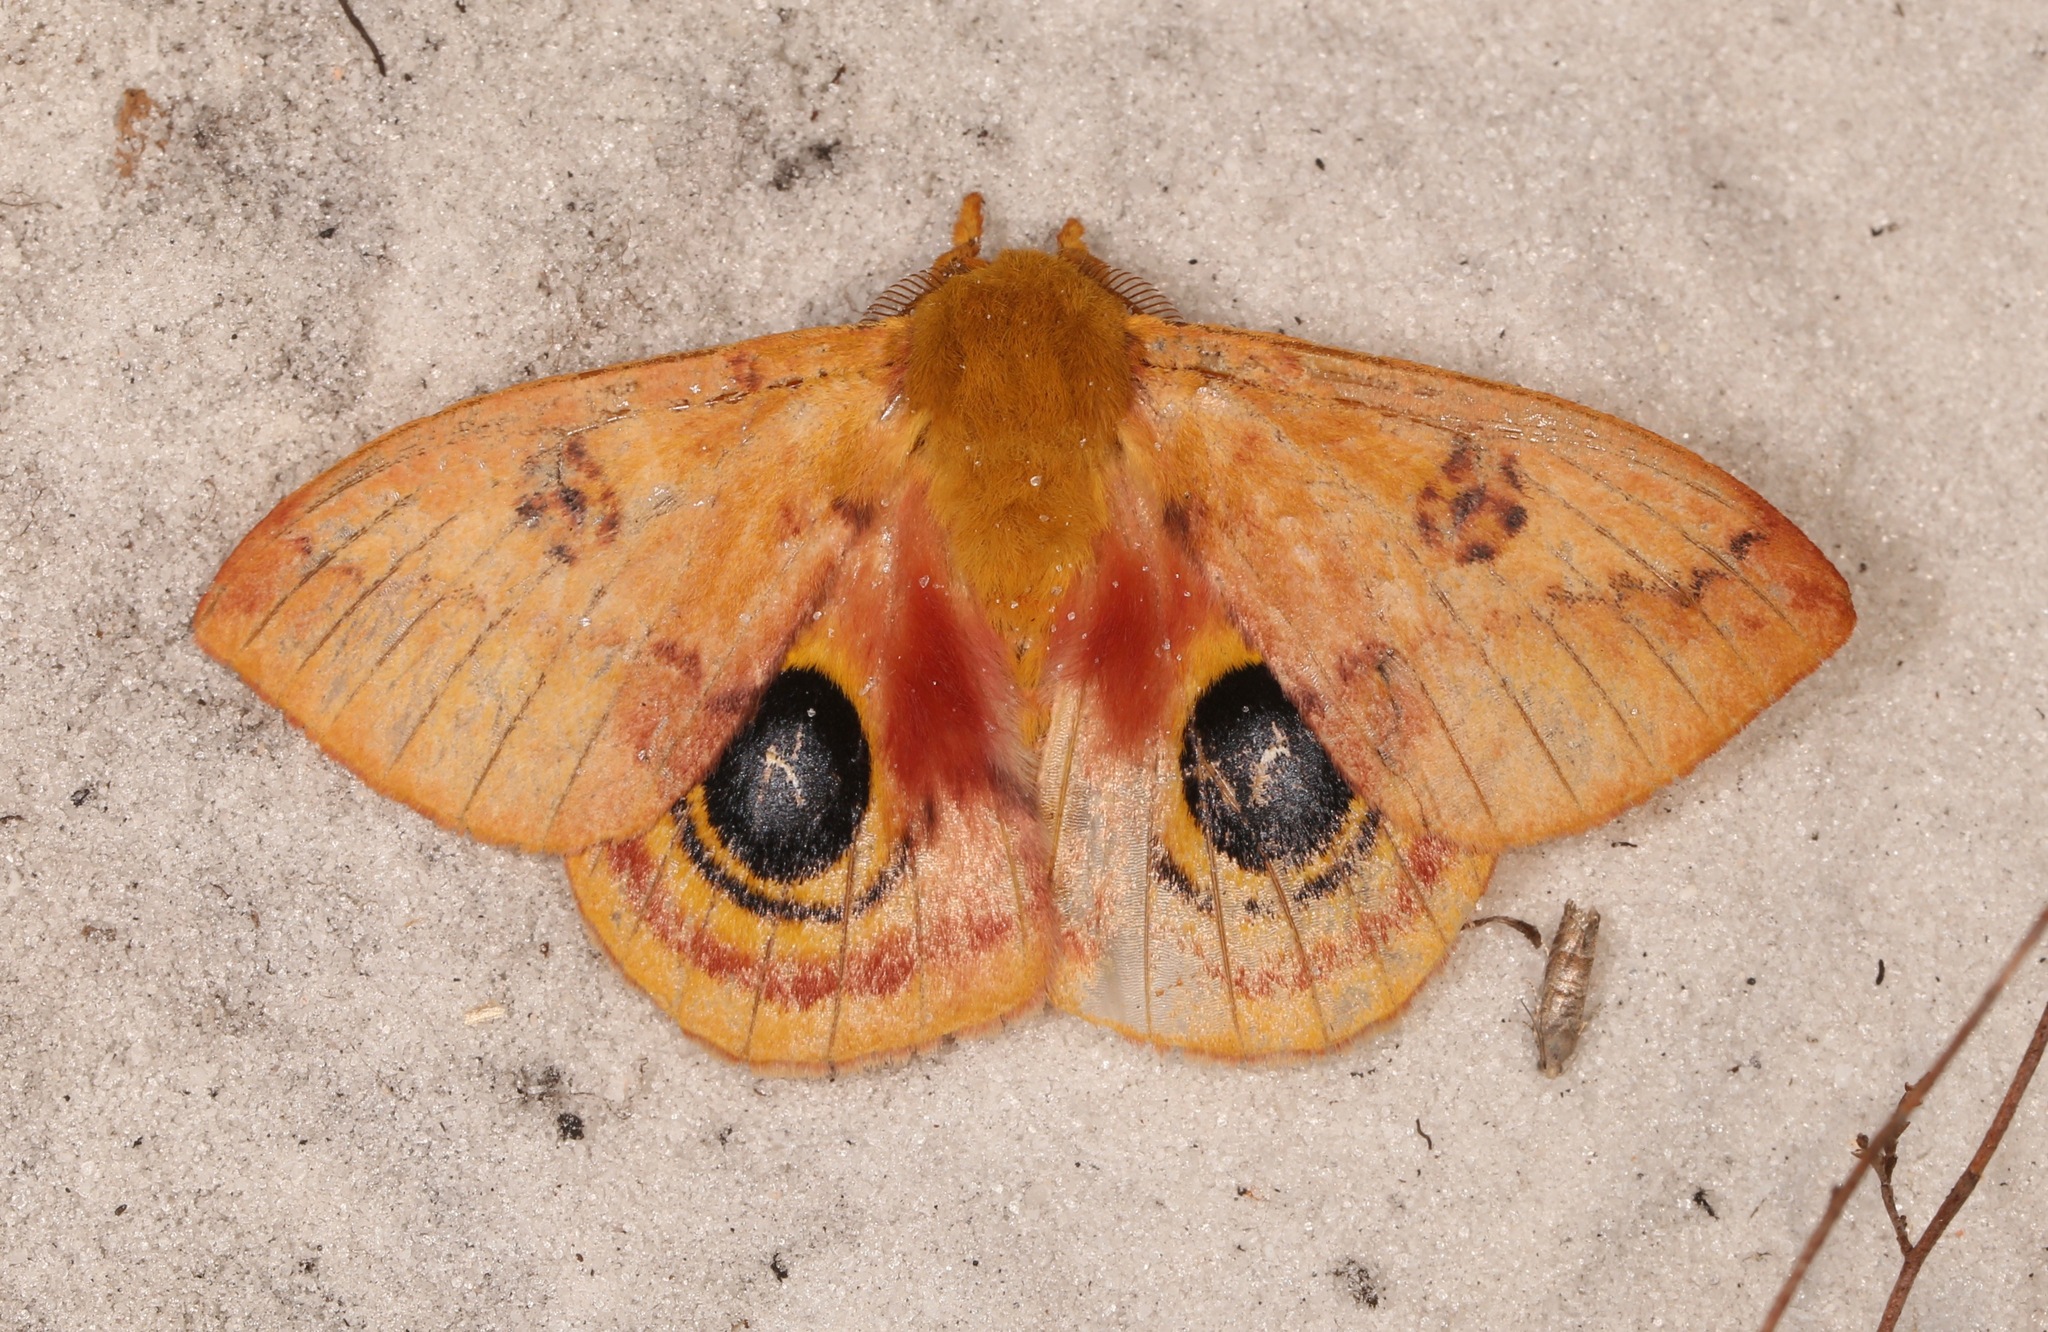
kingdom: Animalia
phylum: Arthropoda
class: Insecta
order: Lepidoptera
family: Saturniidae
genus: Automeris
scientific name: Automeris io
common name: Io moth
